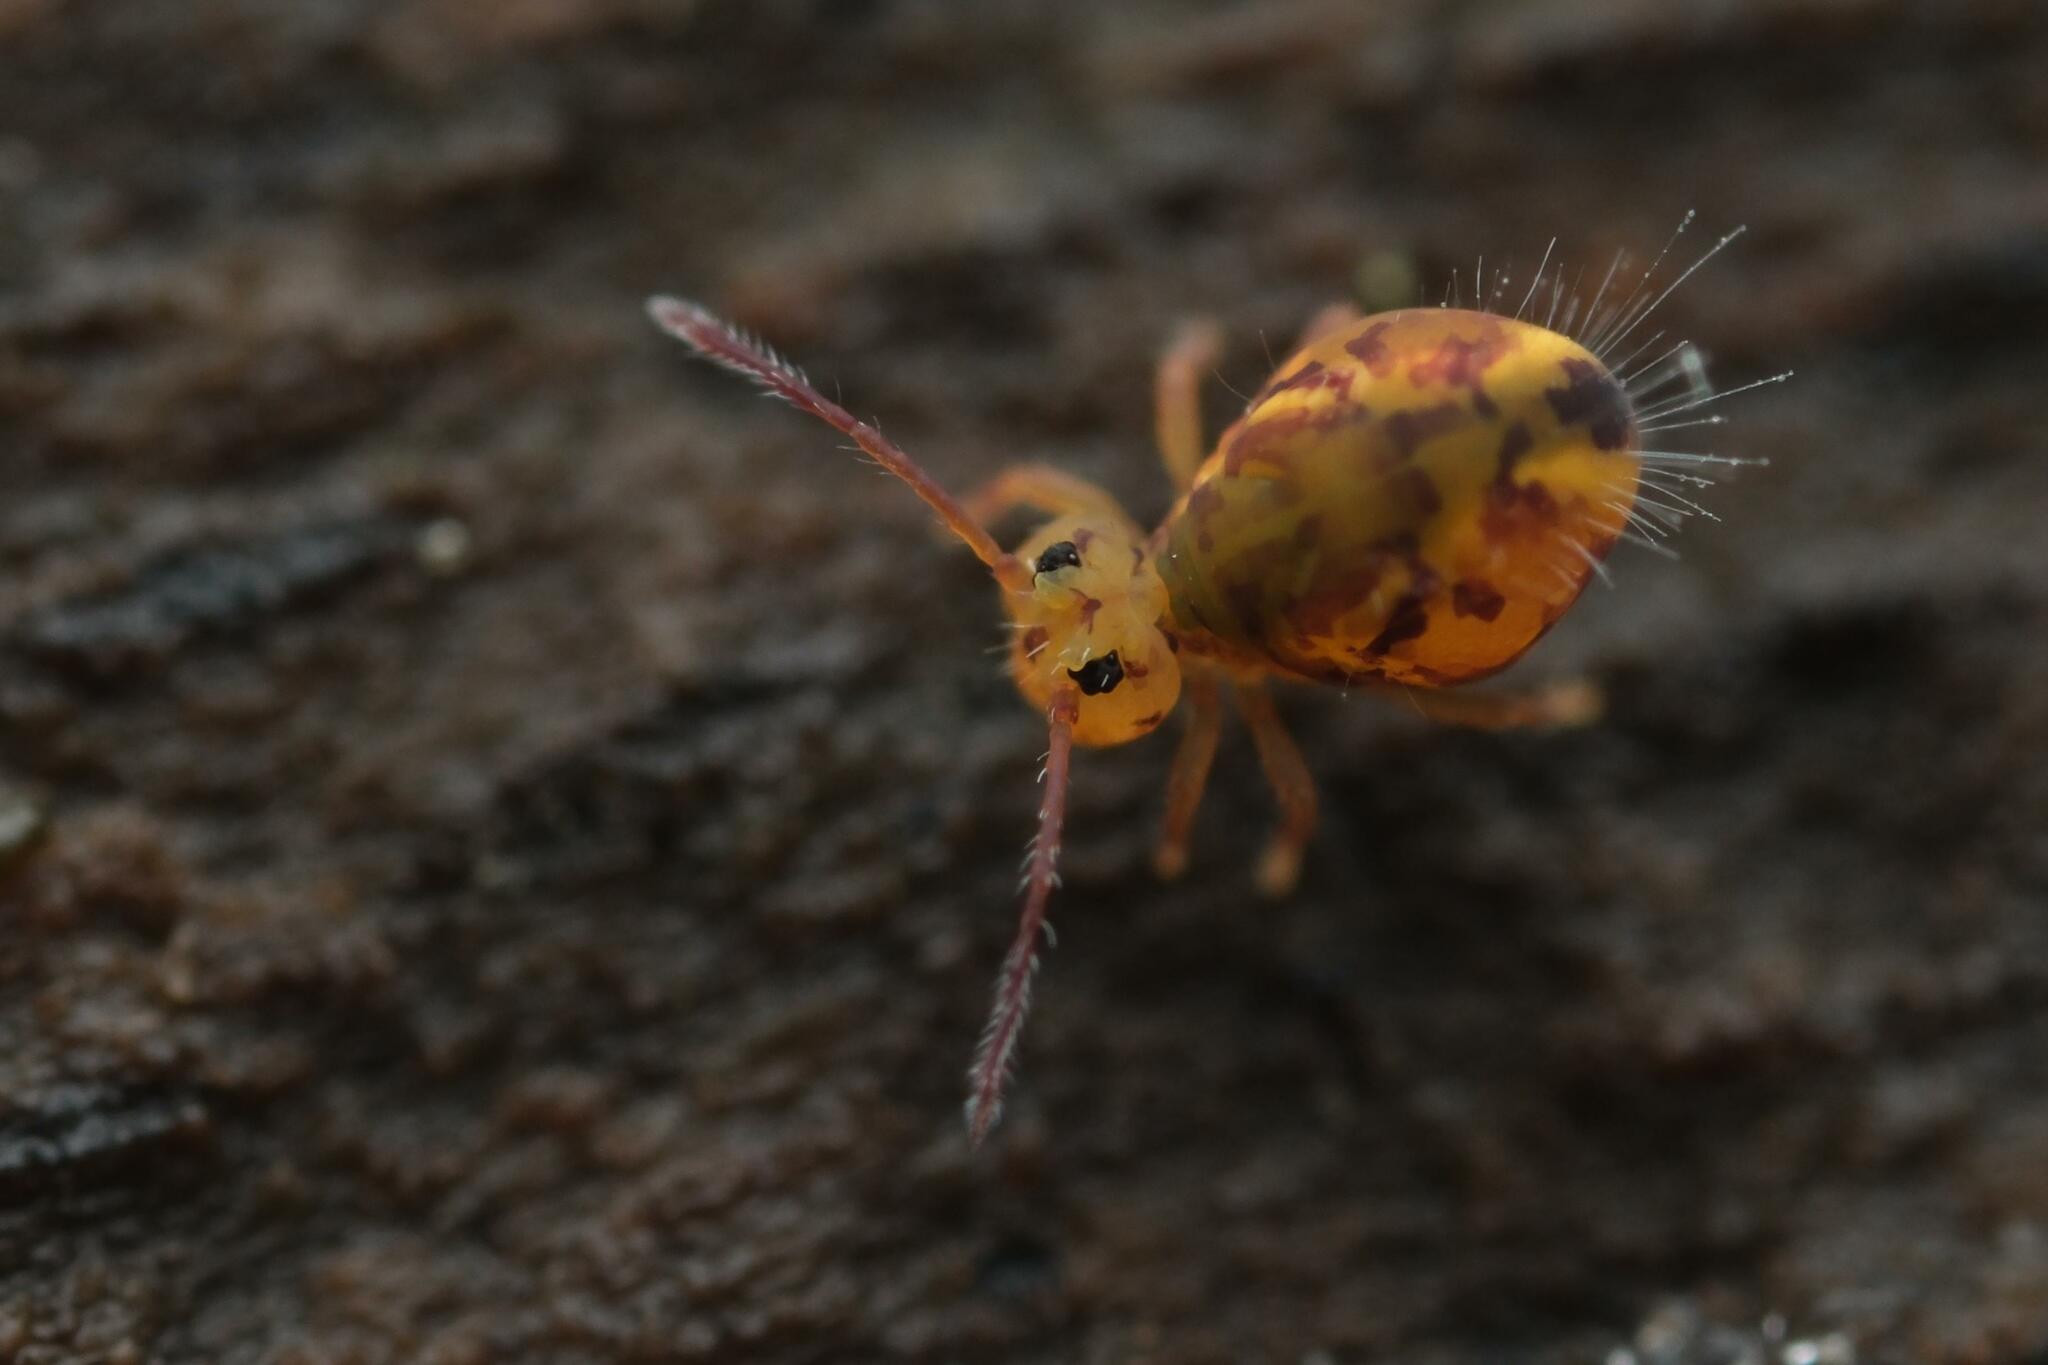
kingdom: Animalia
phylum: Arthropoda
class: Collembola
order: Symphypleona
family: Dicyrtomidae
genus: Dicyrtomina
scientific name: Dicyrtomina ornata
